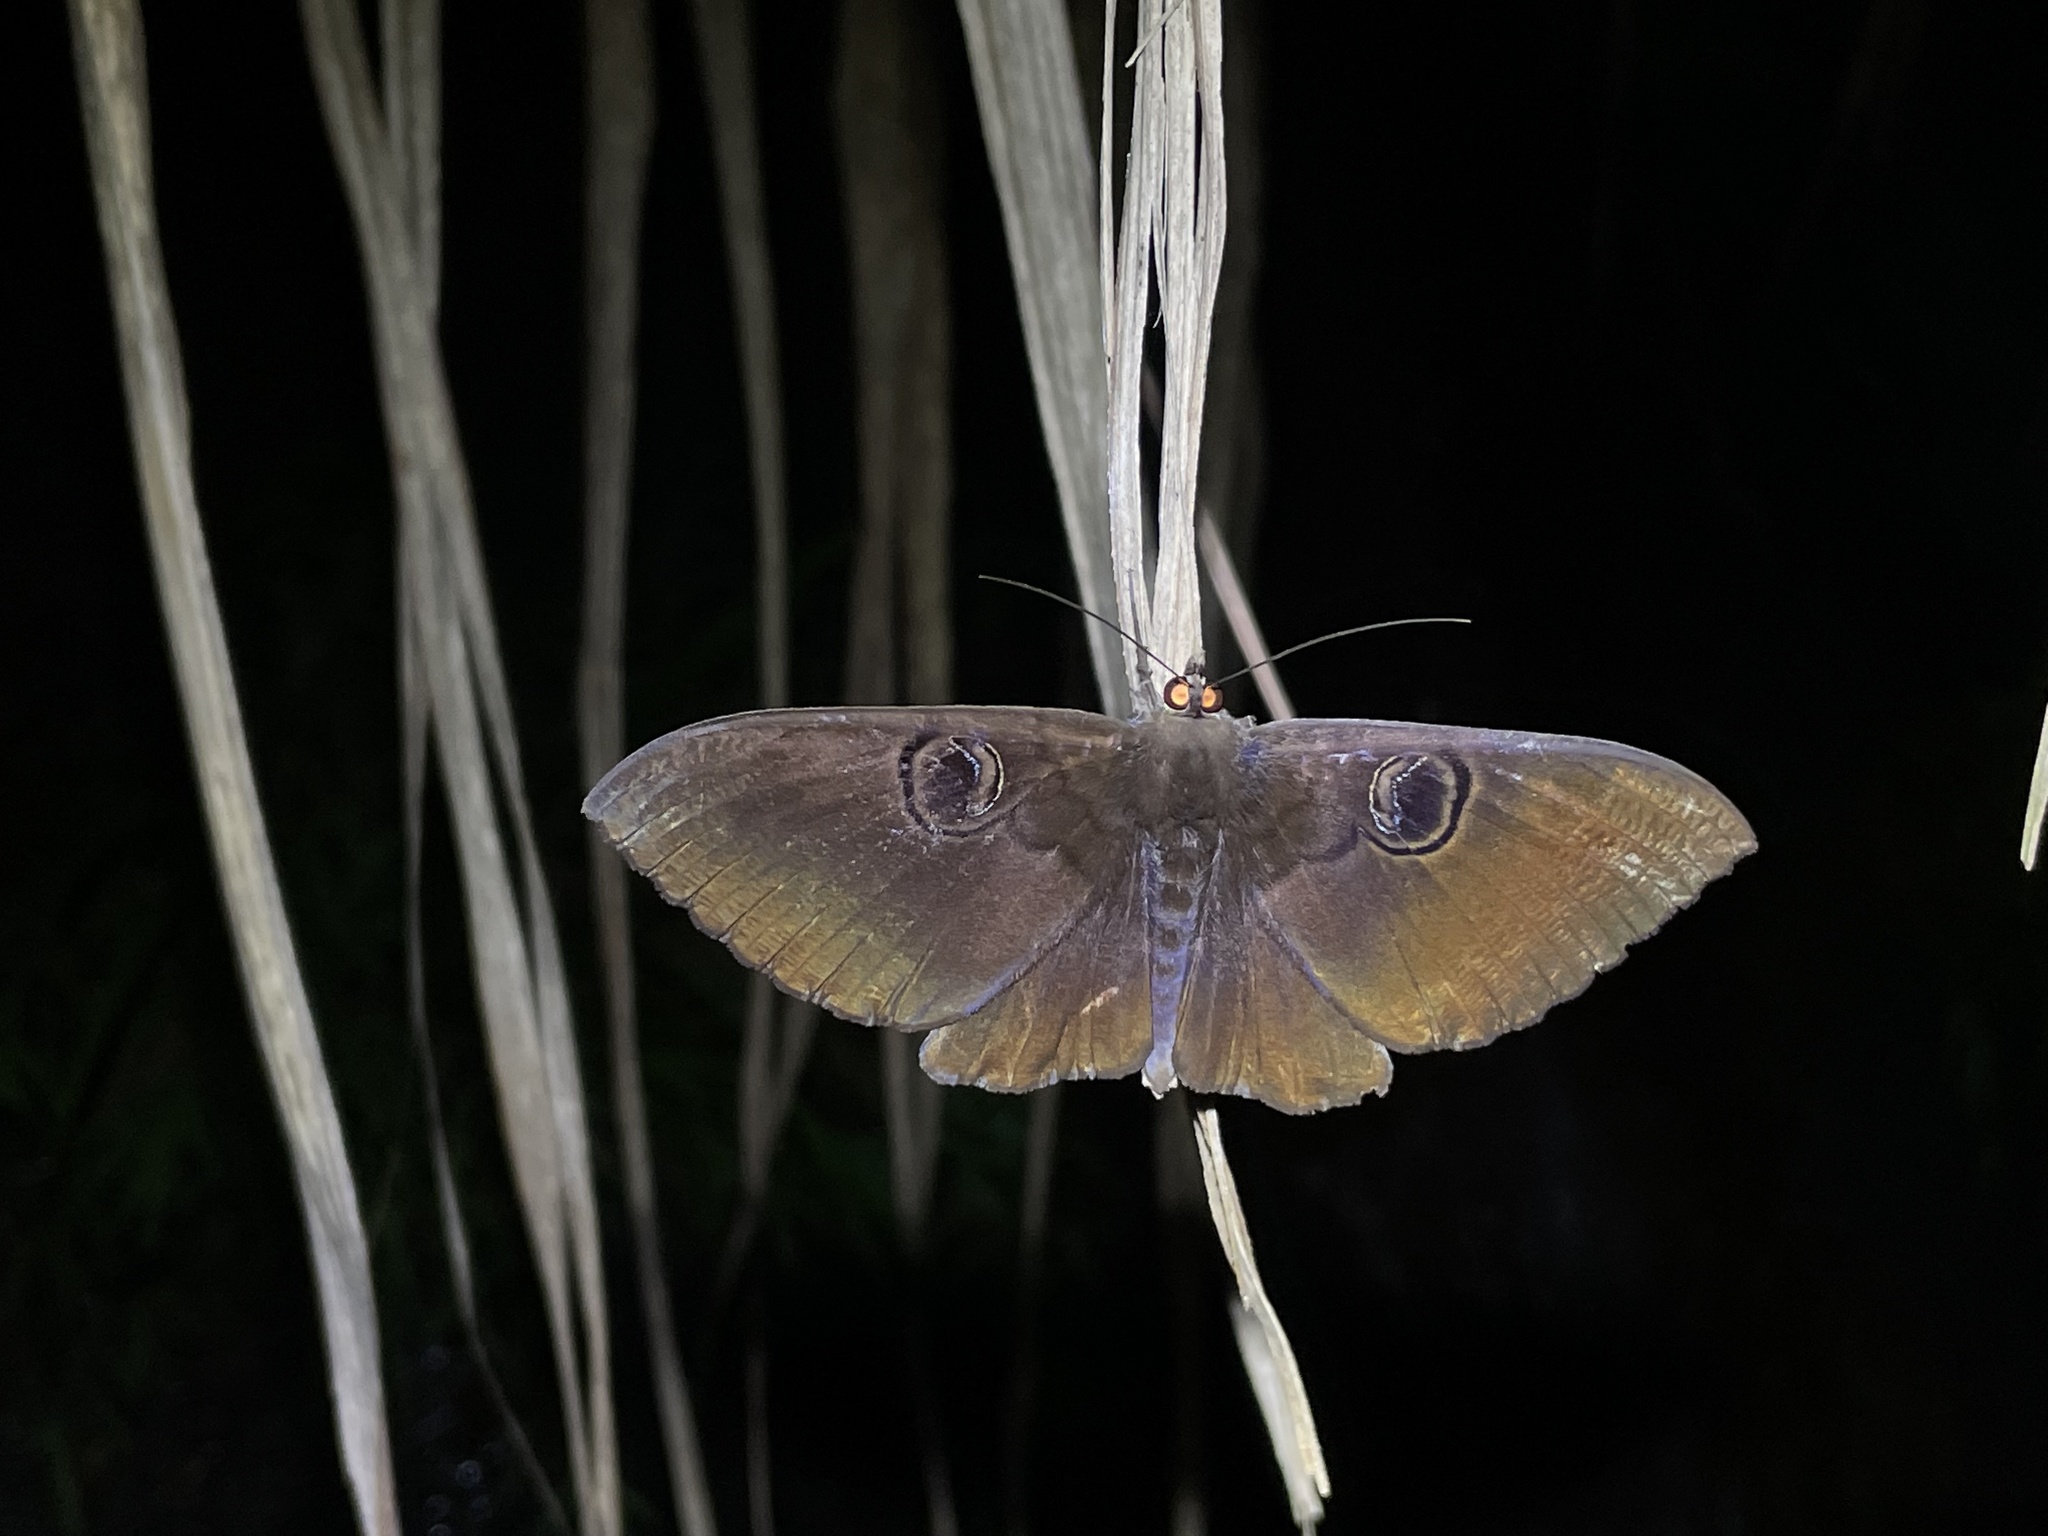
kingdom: Animalia
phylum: Arthropoda
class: Insecta
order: Lepidoptera
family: Erebidae
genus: Erebus
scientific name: Erebus caprimulgus
